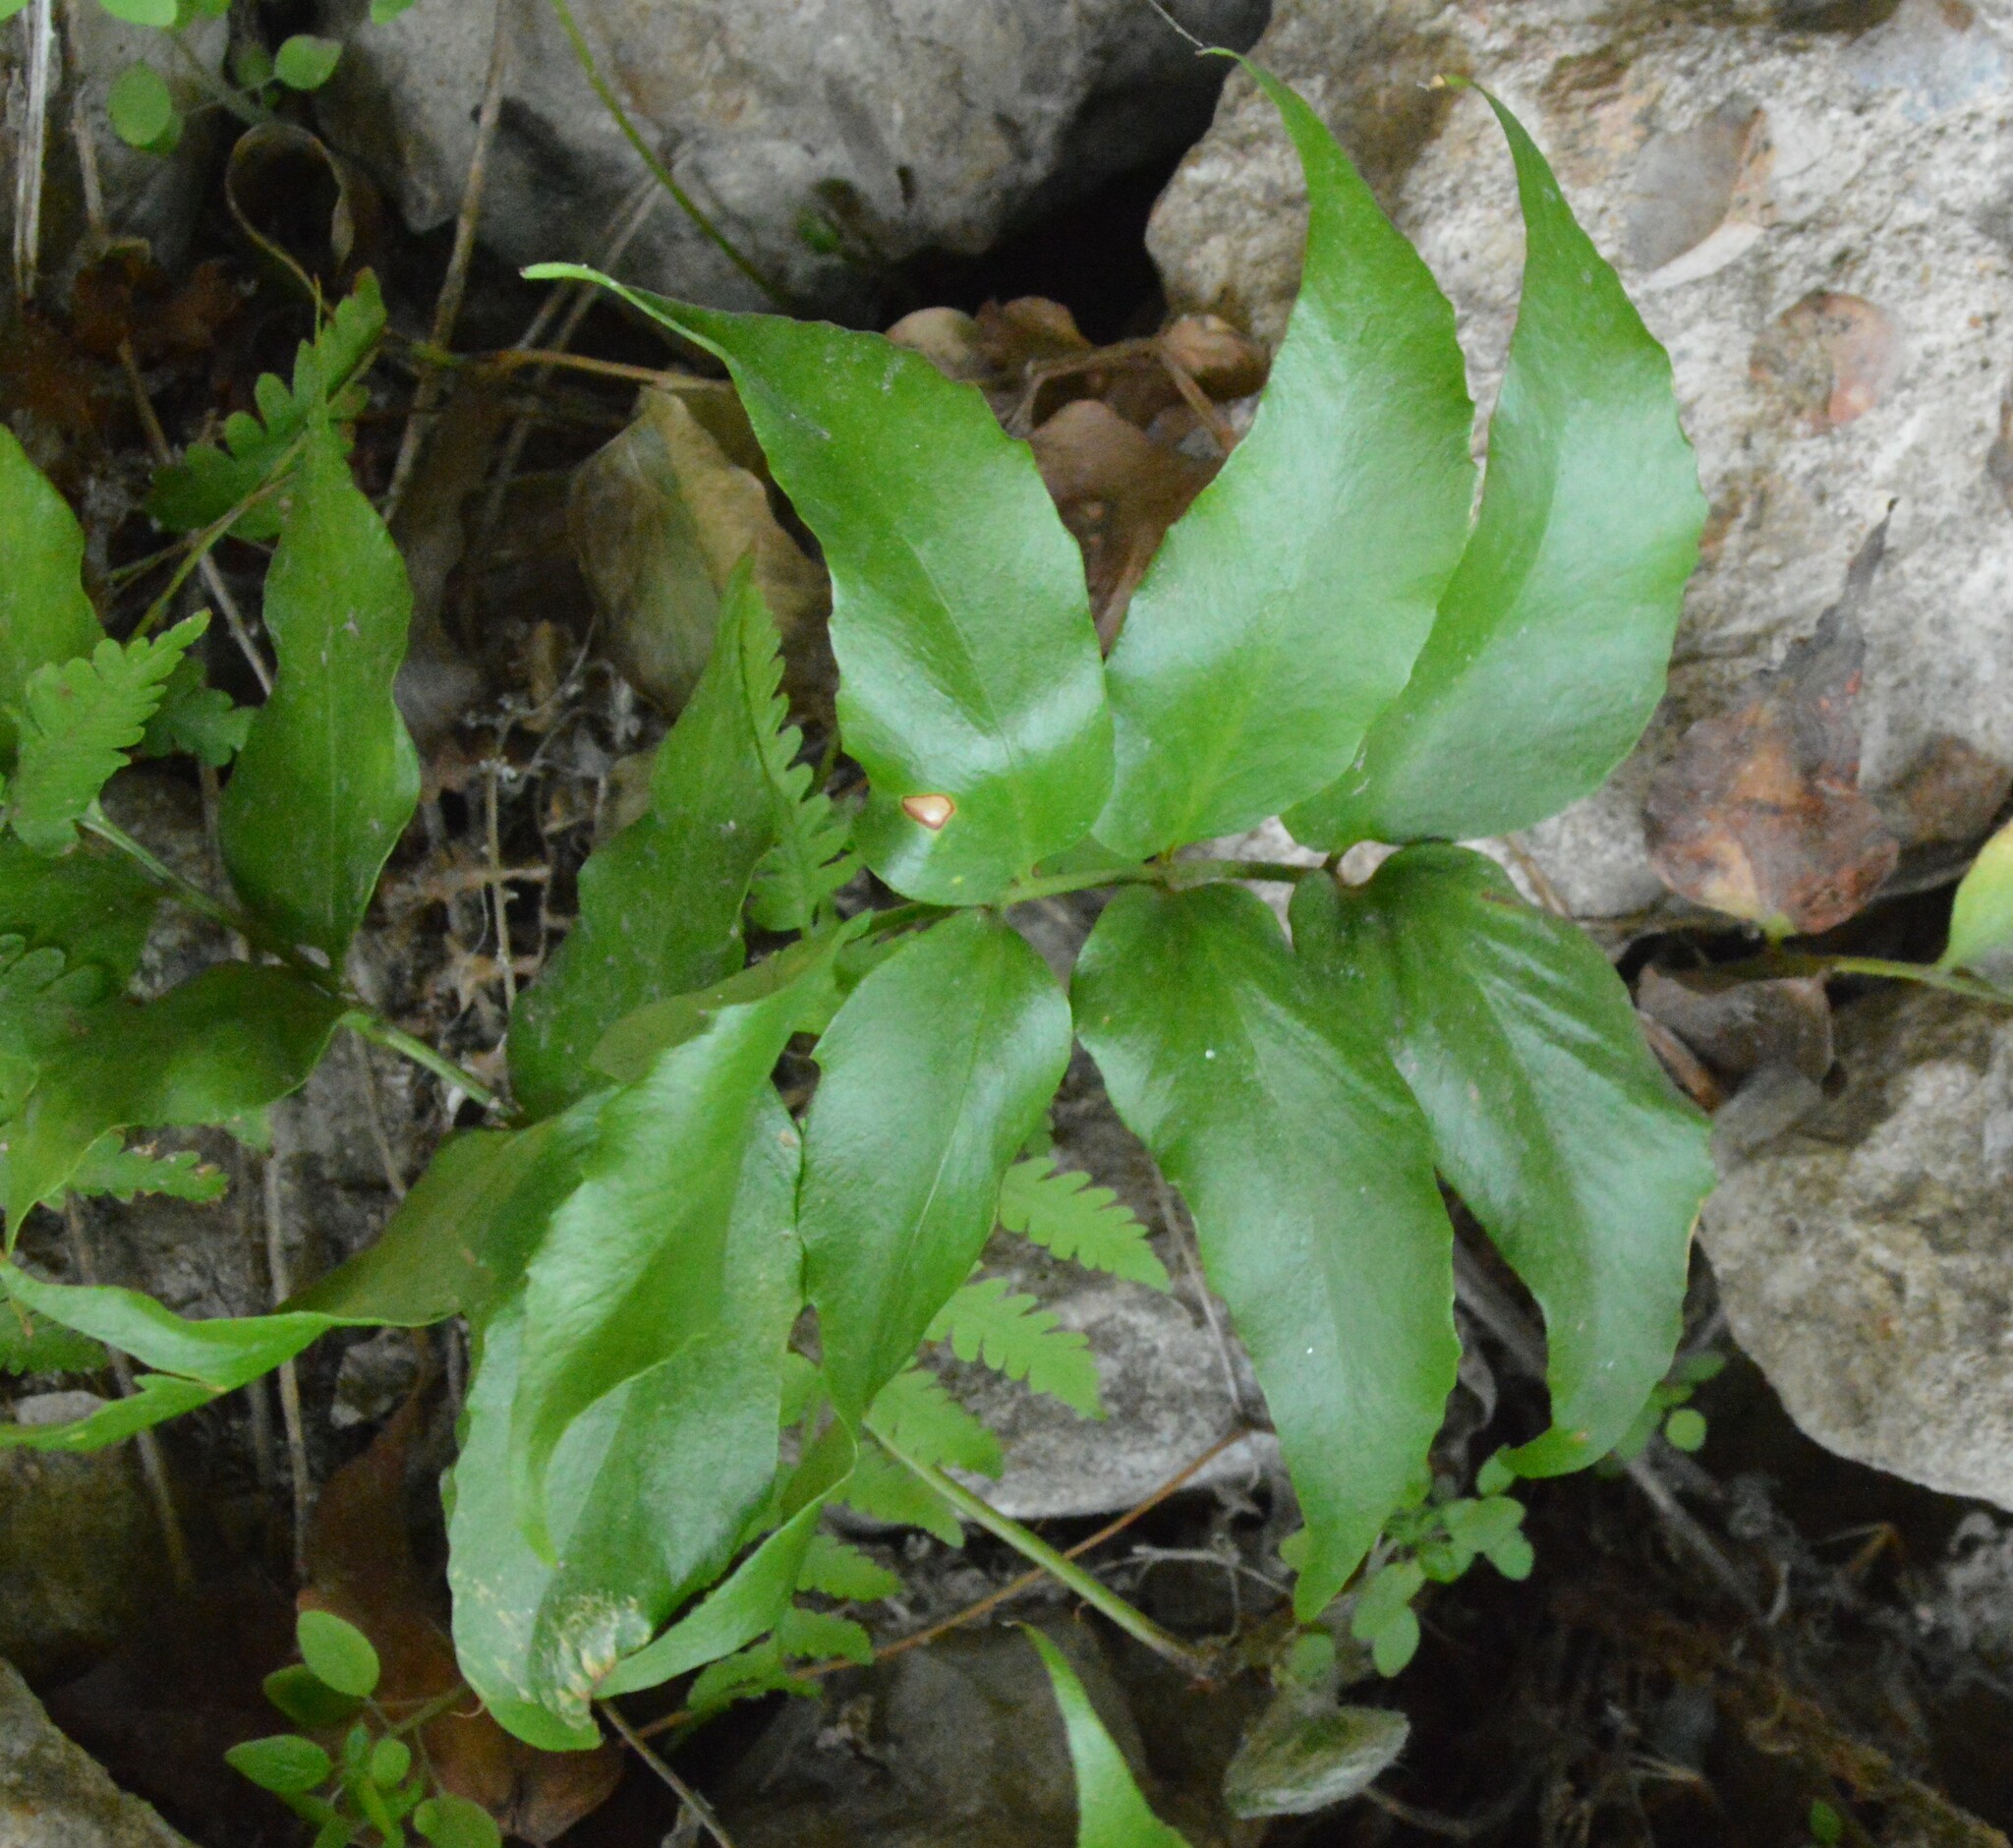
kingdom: Plantae
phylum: Tracheophyta
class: Polypodiopsida
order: Polypodiales
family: Dryopteridaceae
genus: Cyrtomium
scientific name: Cyrtomium falcatum
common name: House holly-fern
